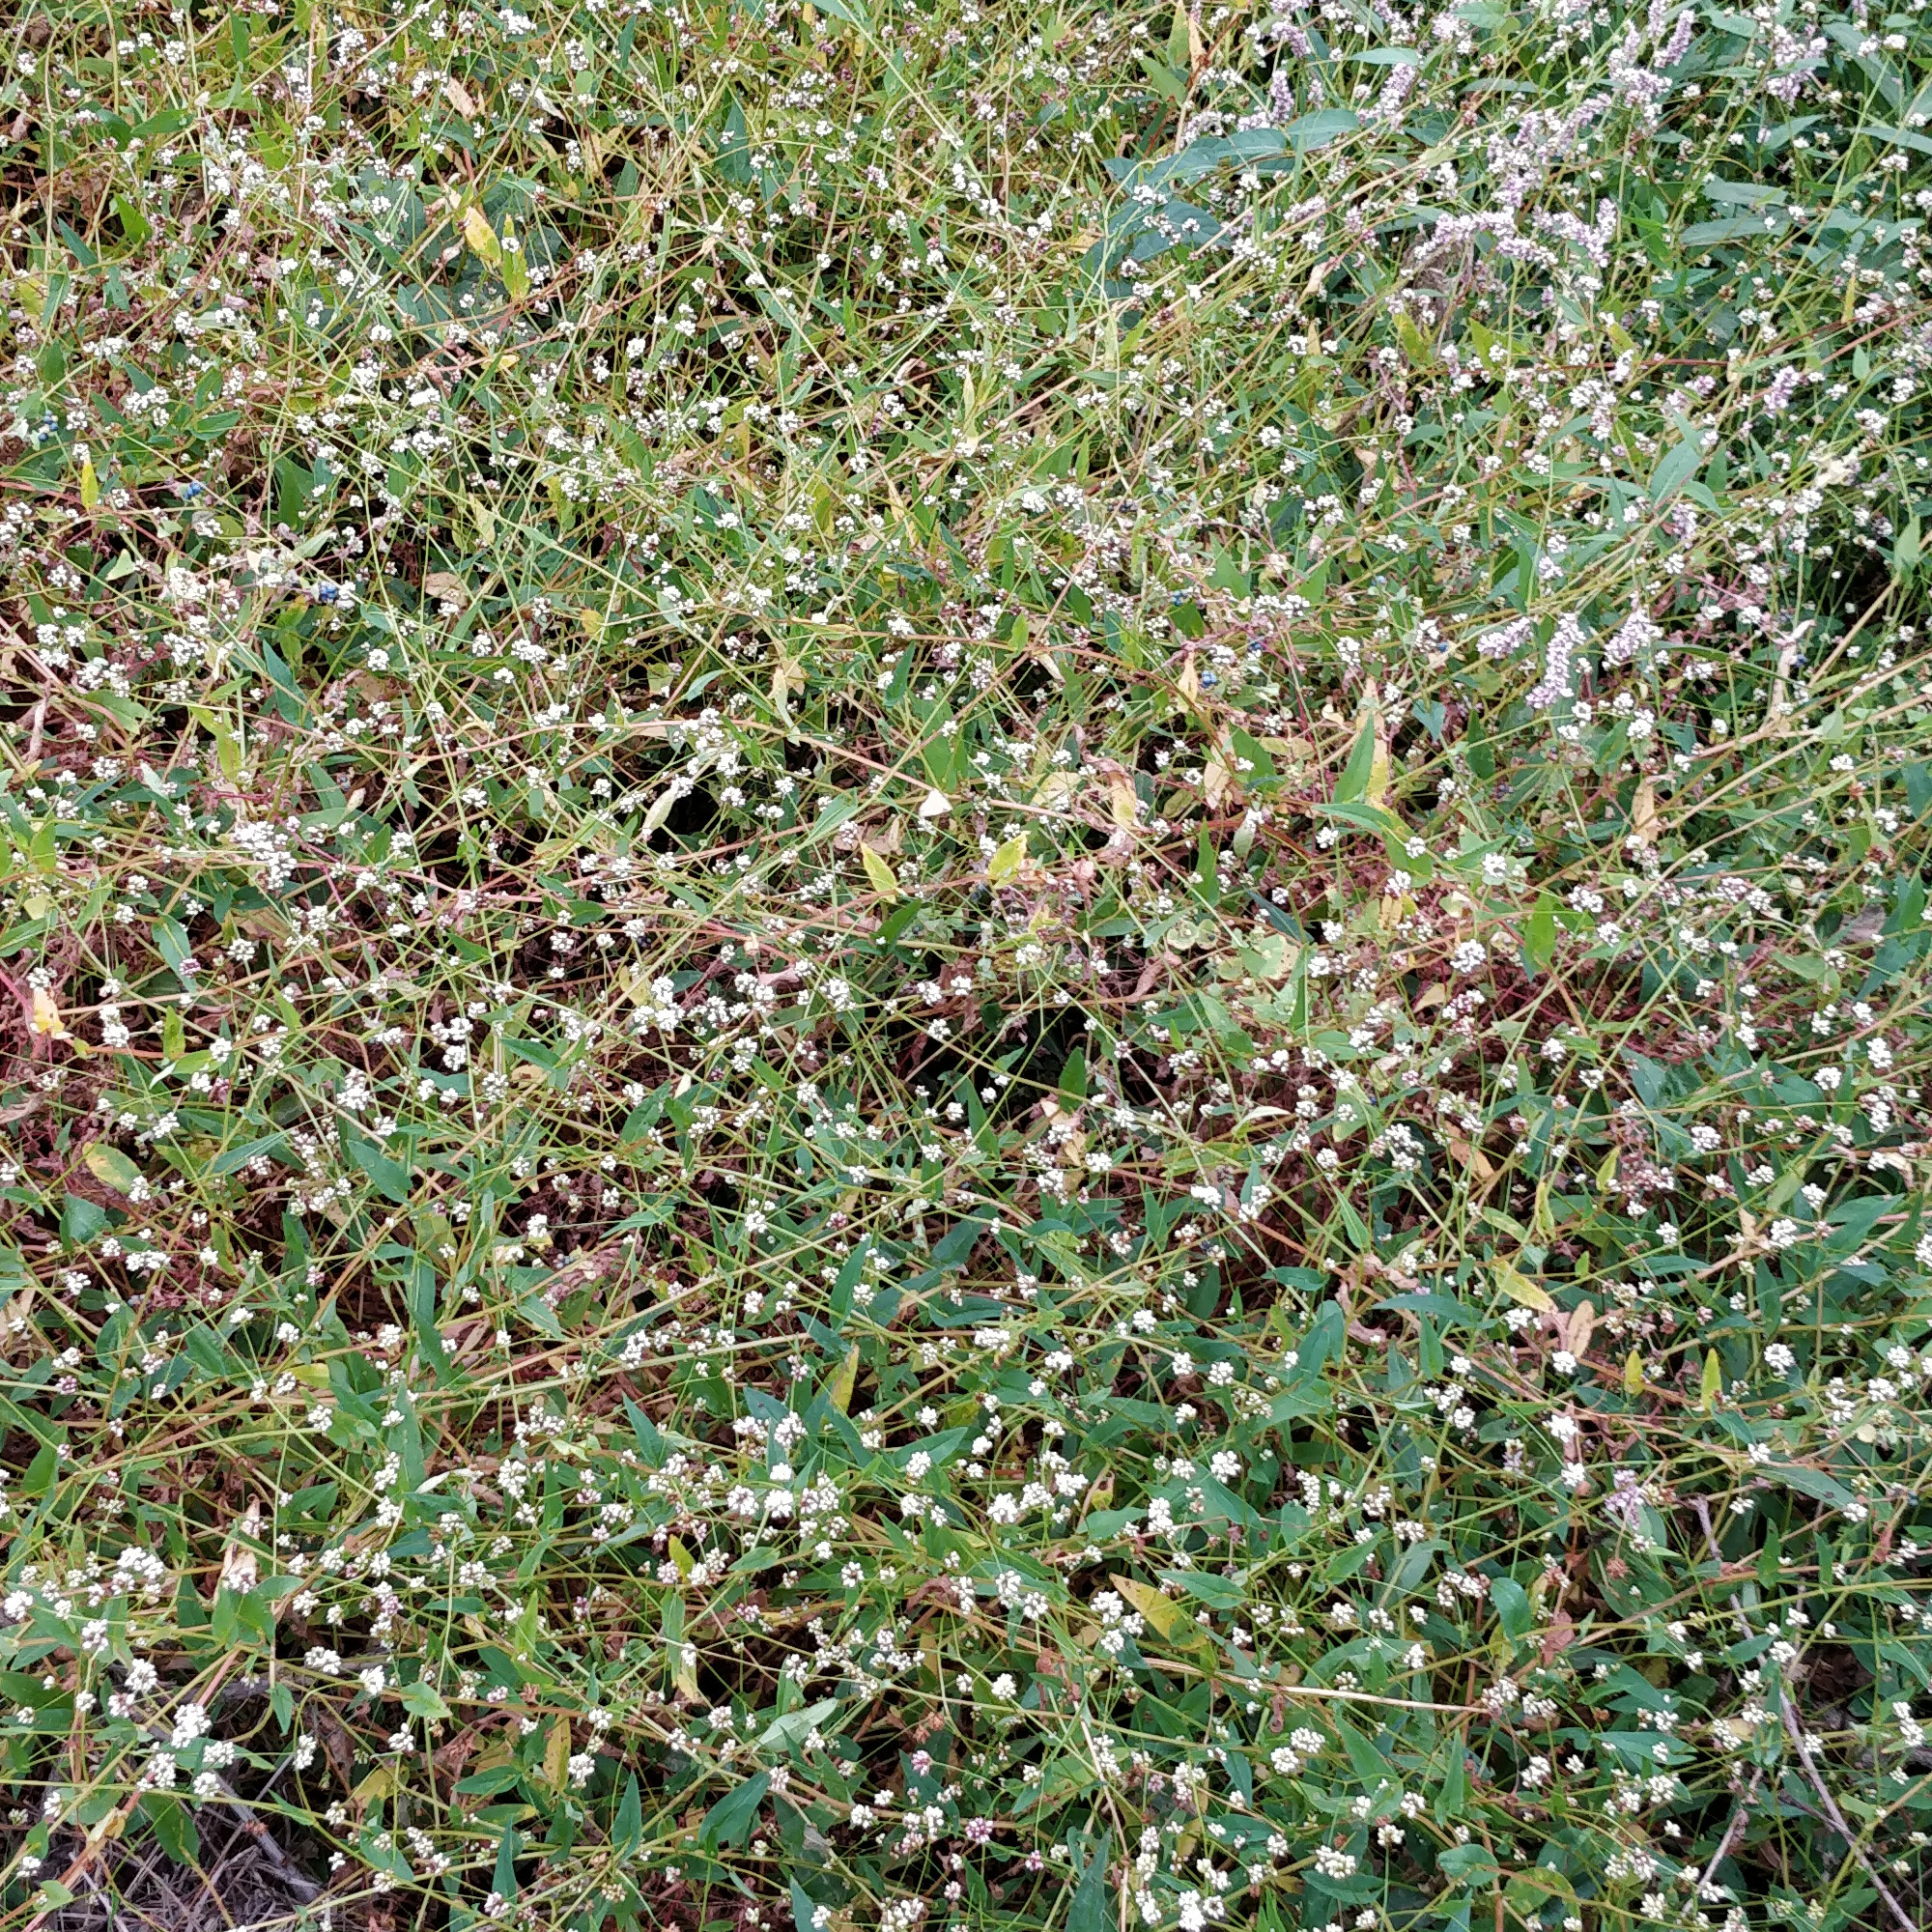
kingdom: Plantae
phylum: Tracheophyta
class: Magnoliopsida
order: Caryophyllales
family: Polygonaceae
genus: Persicaria
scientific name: Persicaria sagittata
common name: American tearthumb
